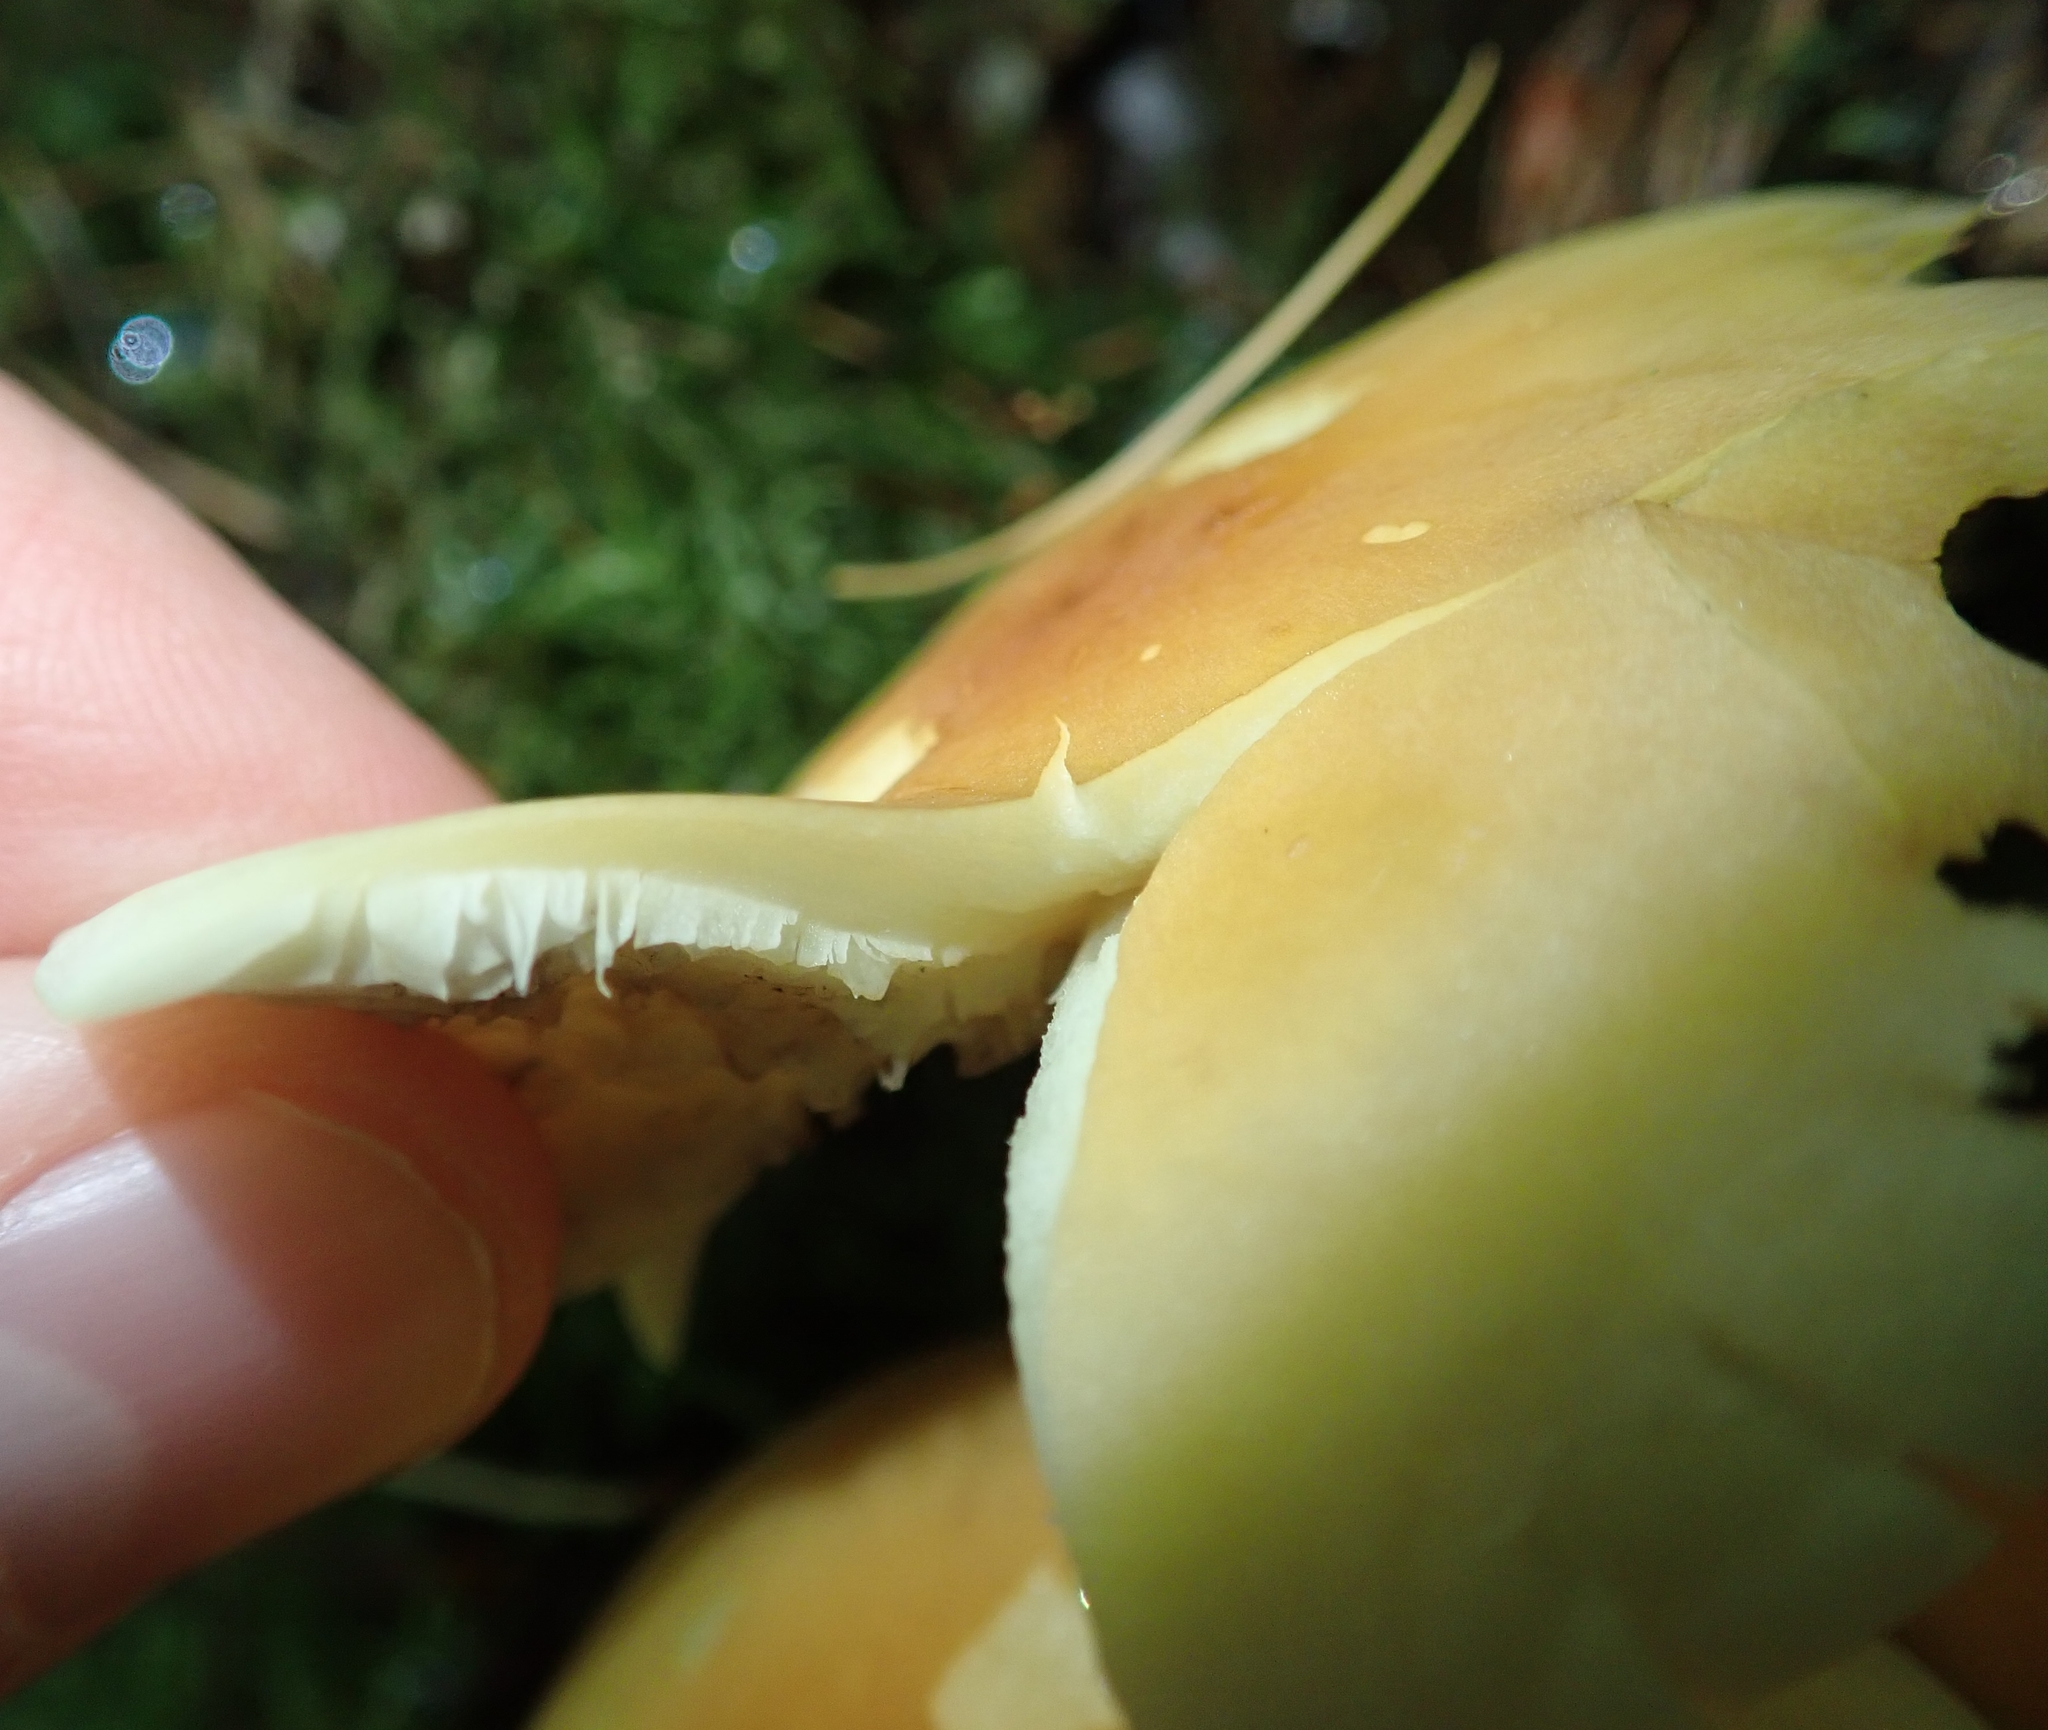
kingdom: Fungi
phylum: Basidiomycota
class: Agaricomycetes
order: Agaricales
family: Strophariaceae
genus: Hypholoma
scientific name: Hypholoma fasciculare
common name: Sulphur tuft
